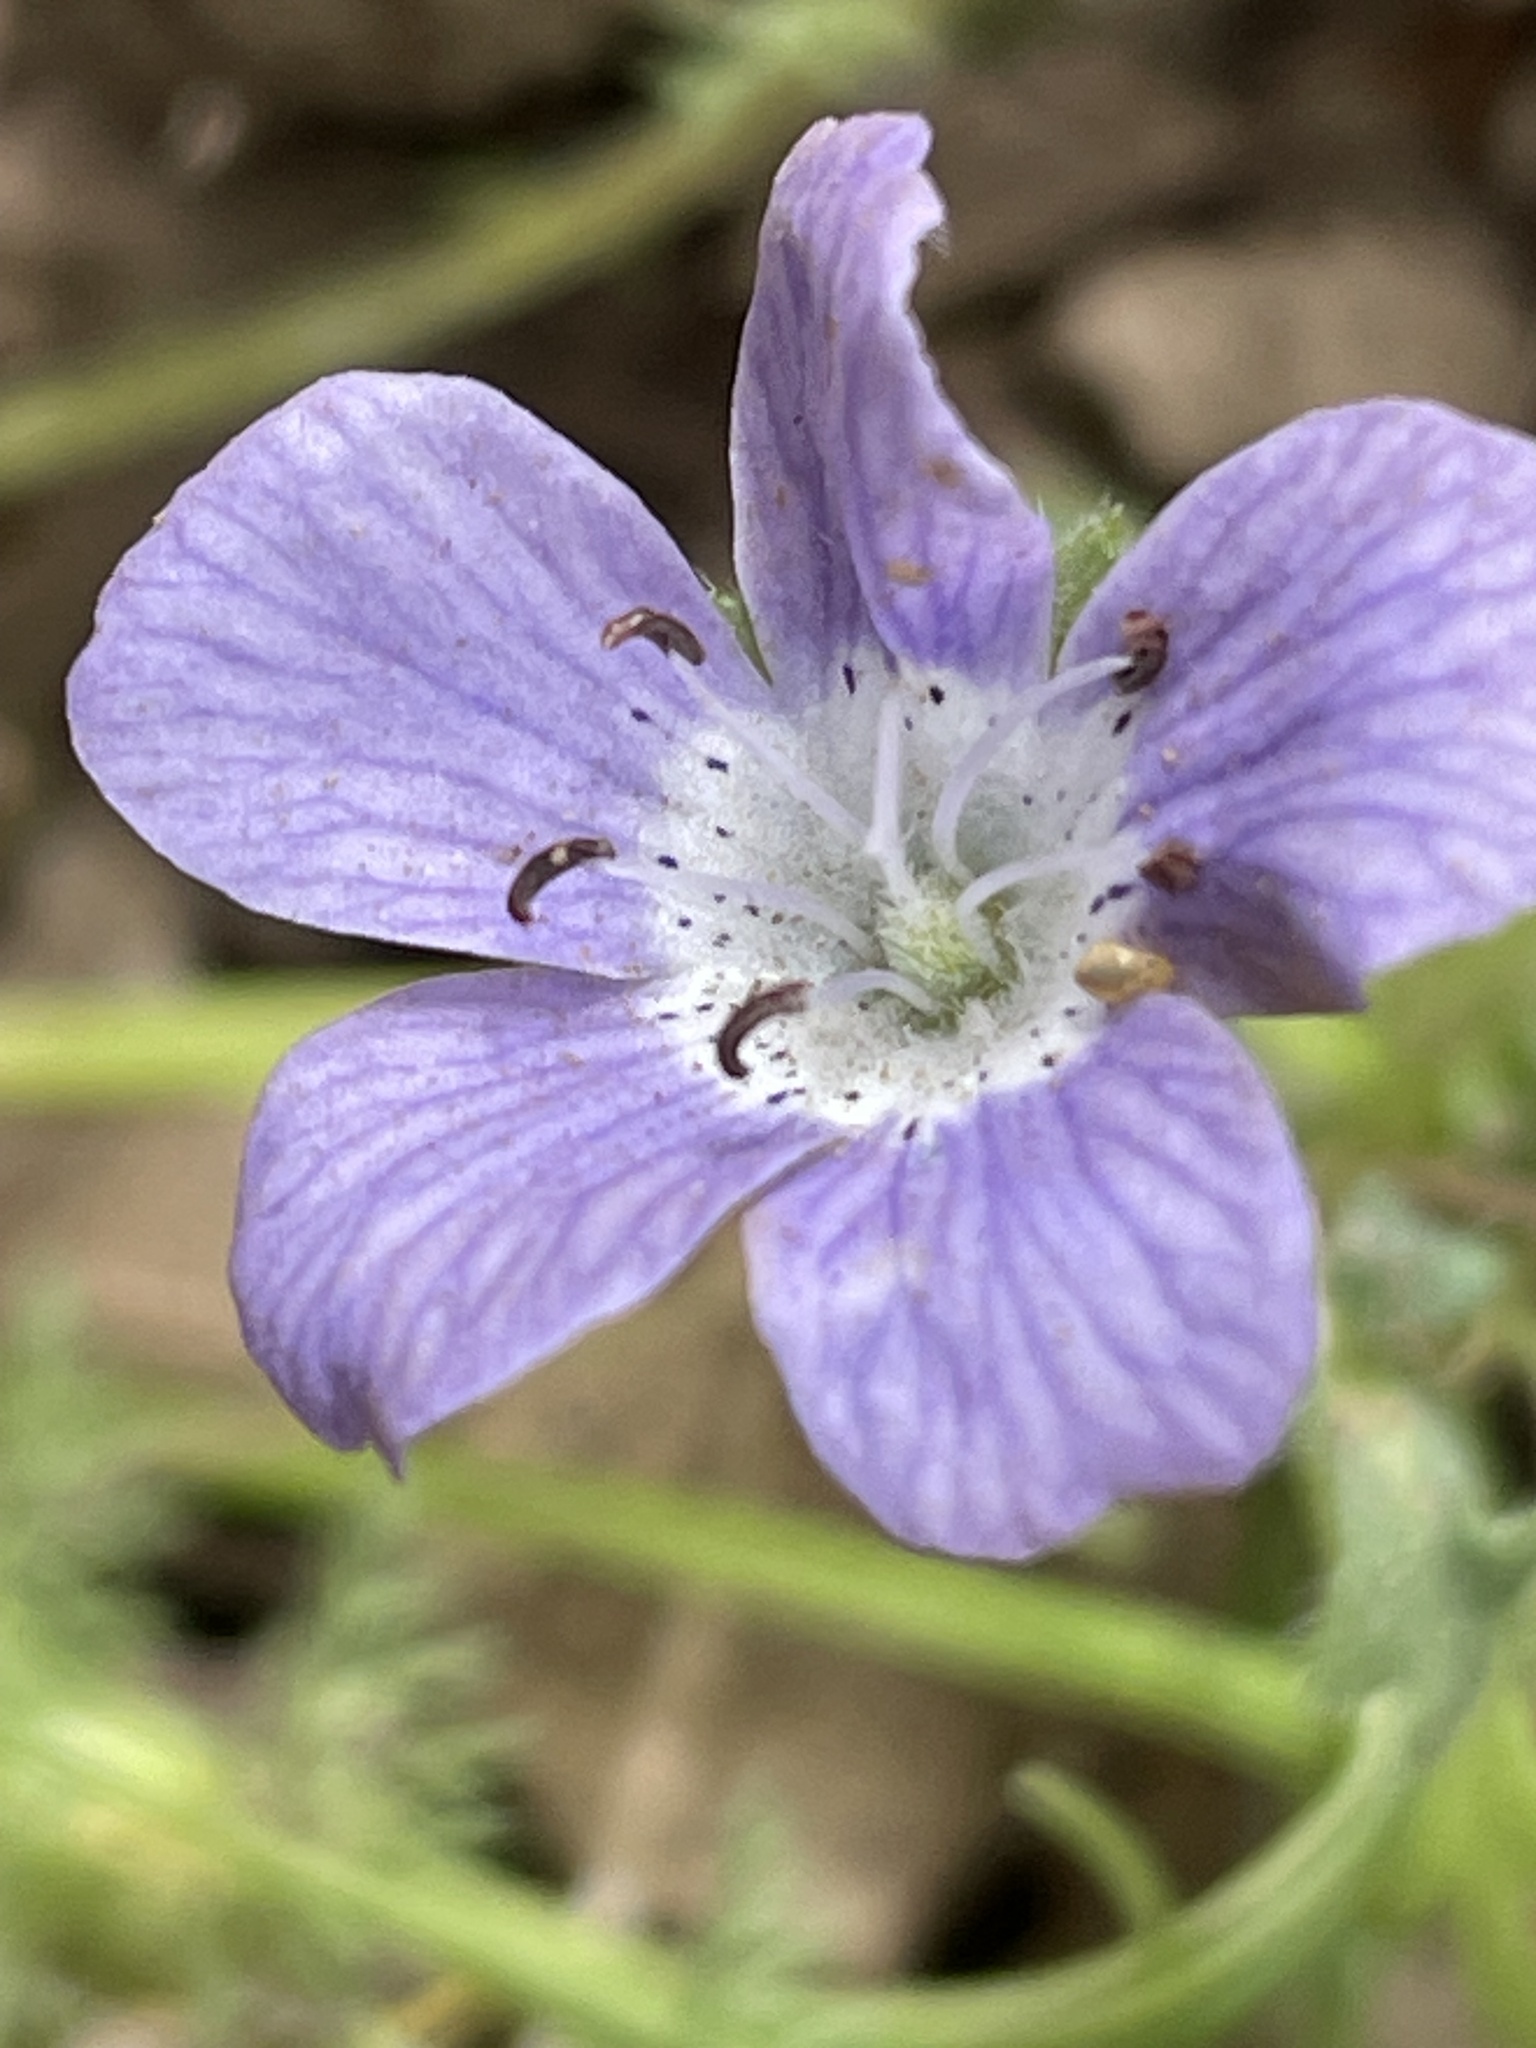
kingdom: Plantae
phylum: Tracheophyta
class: Magnoliopsida
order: Boraginales
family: Hydrophyllaceae
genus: Nemophila
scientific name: Nemophila menziesii
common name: Baby's-blue-eyes
